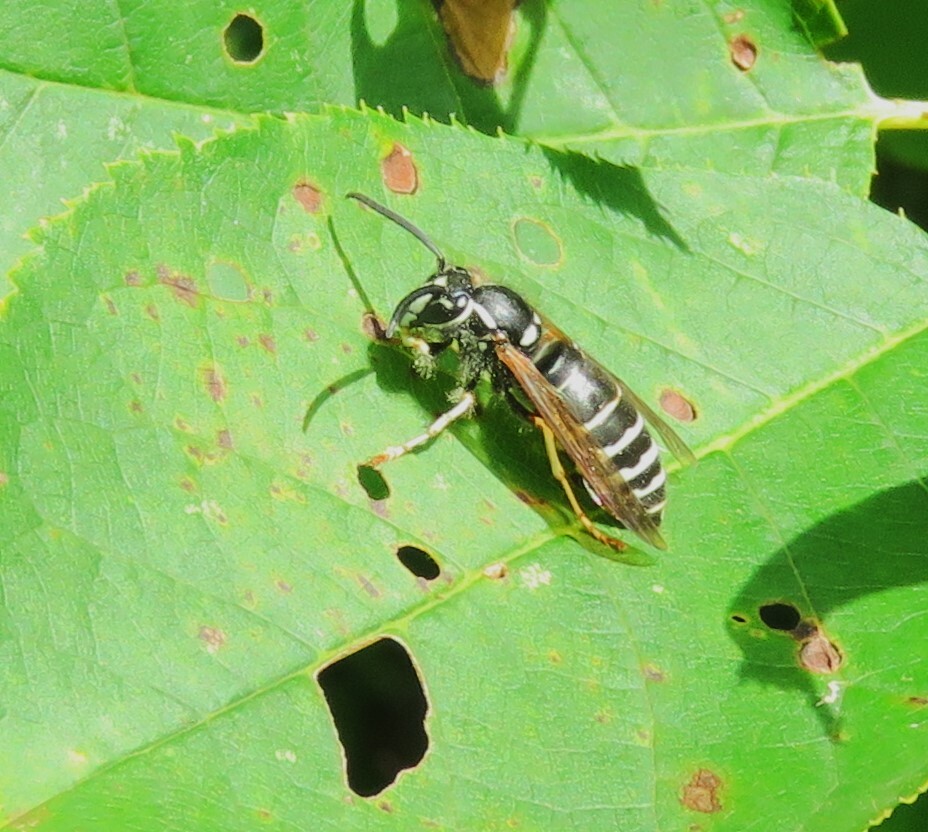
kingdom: Animalia
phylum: Arthropoda
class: Insecta
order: Hymenoptera
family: Vespidae
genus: Vespula
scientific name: Vespula consobrina
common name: Blackjacket
